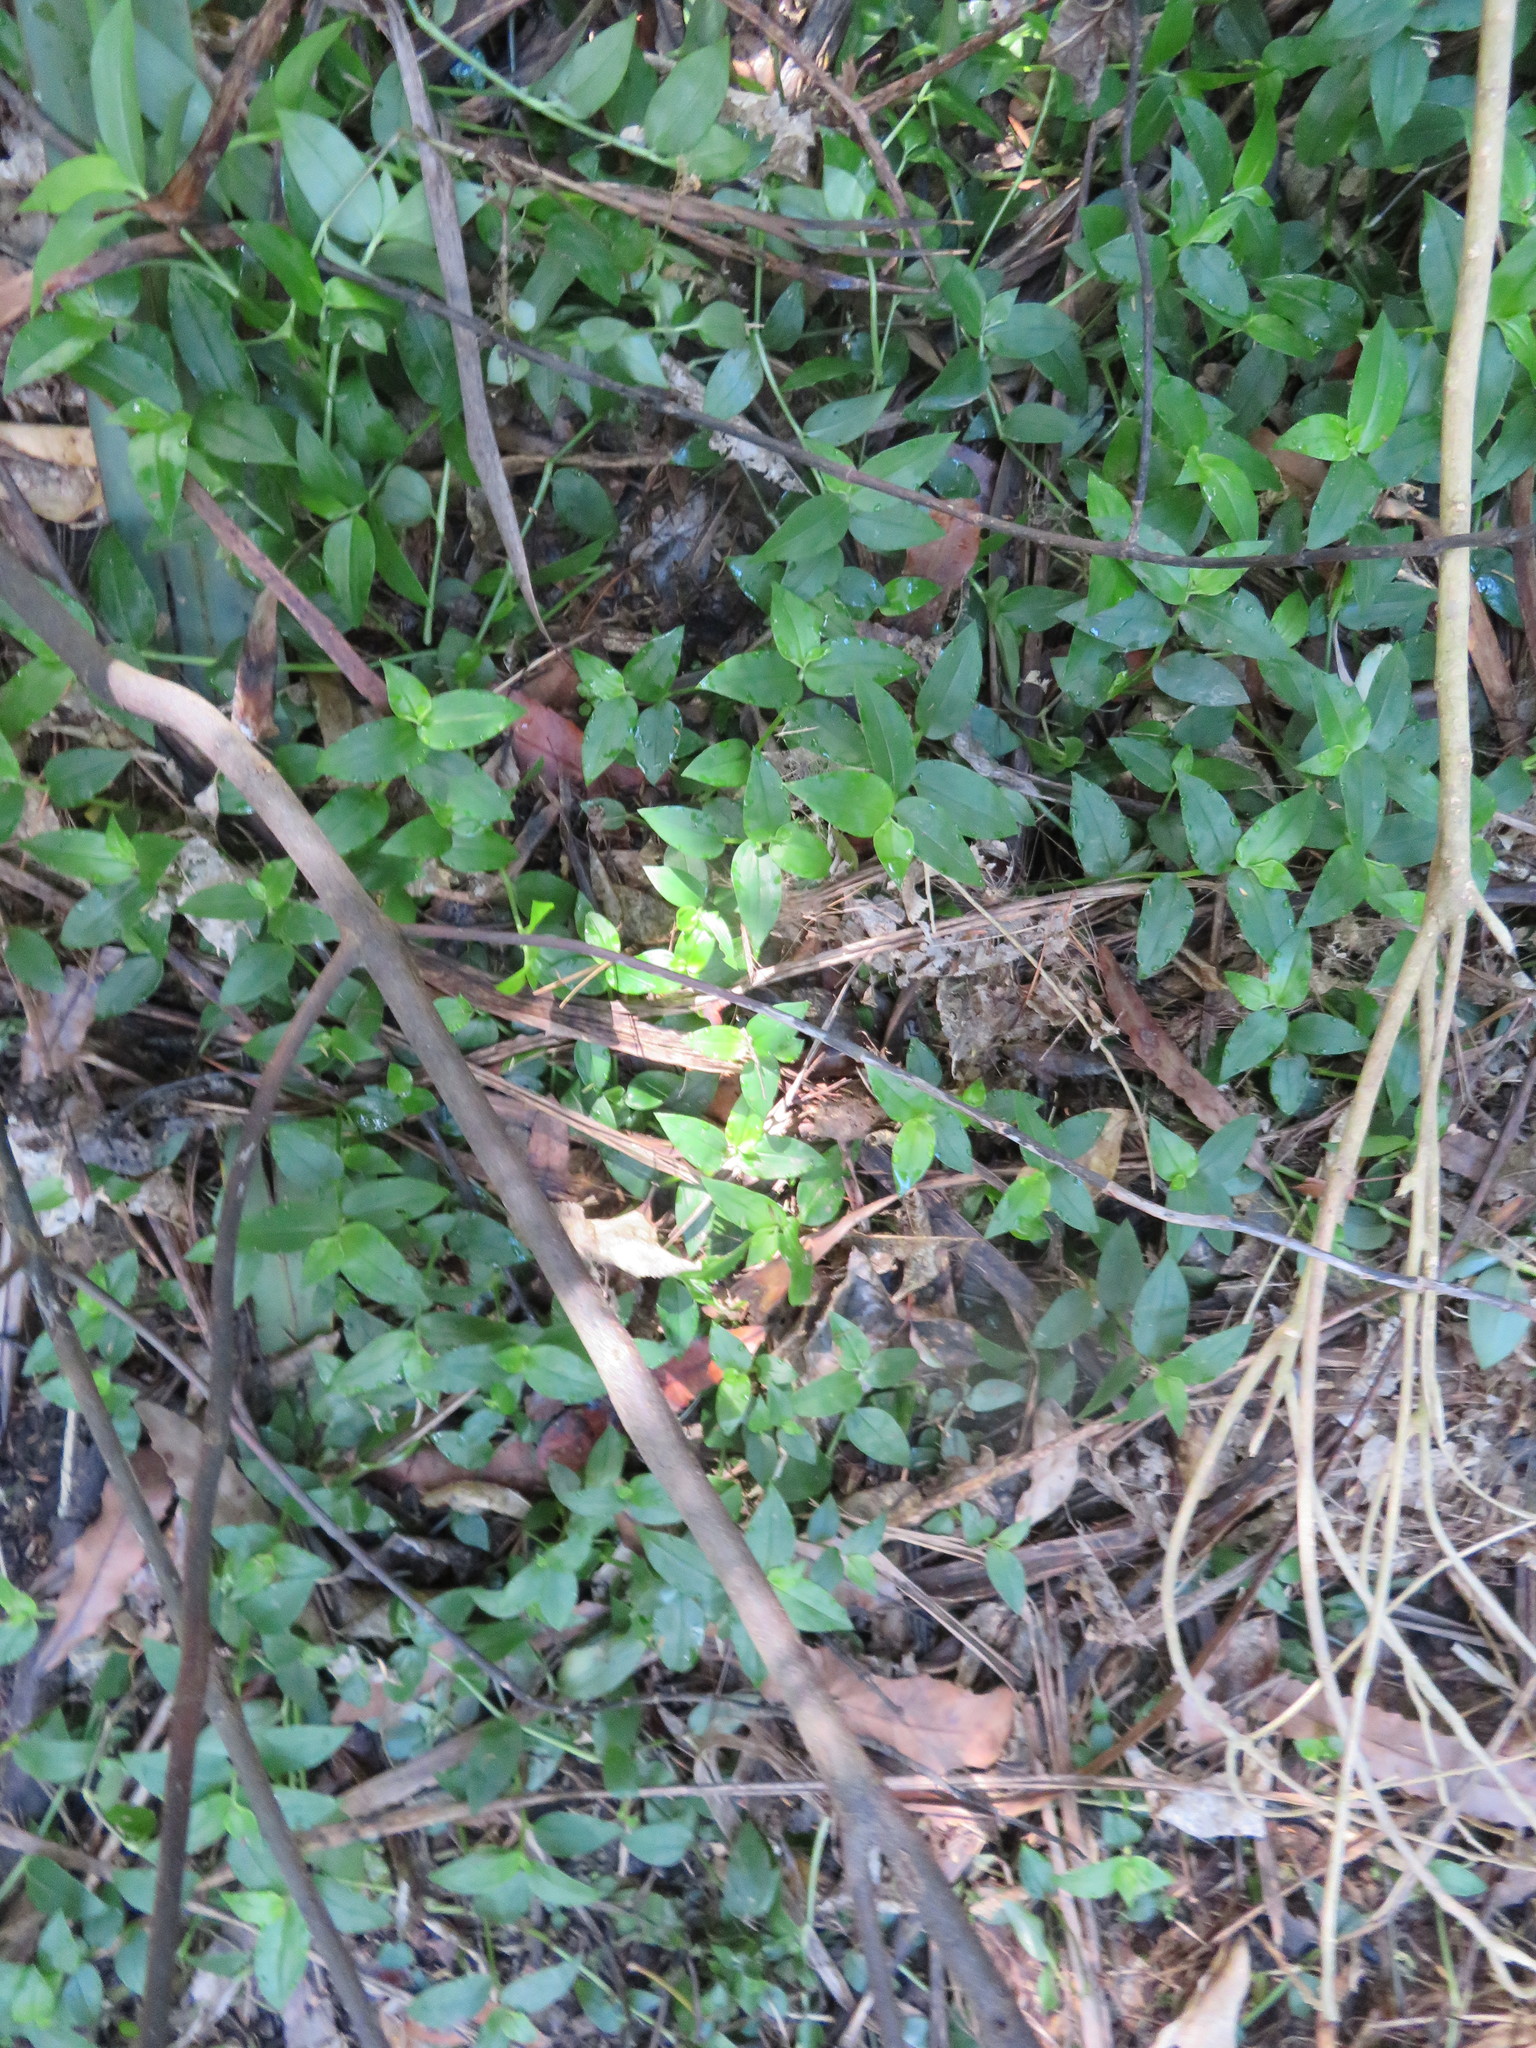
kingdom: Plantae
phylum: Tracheophyta
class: Liliopsida
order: Commelinales
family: Commelinaceae
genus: Tradescantia
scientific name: Tradescantia fluminensis
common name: Wandering-jew
